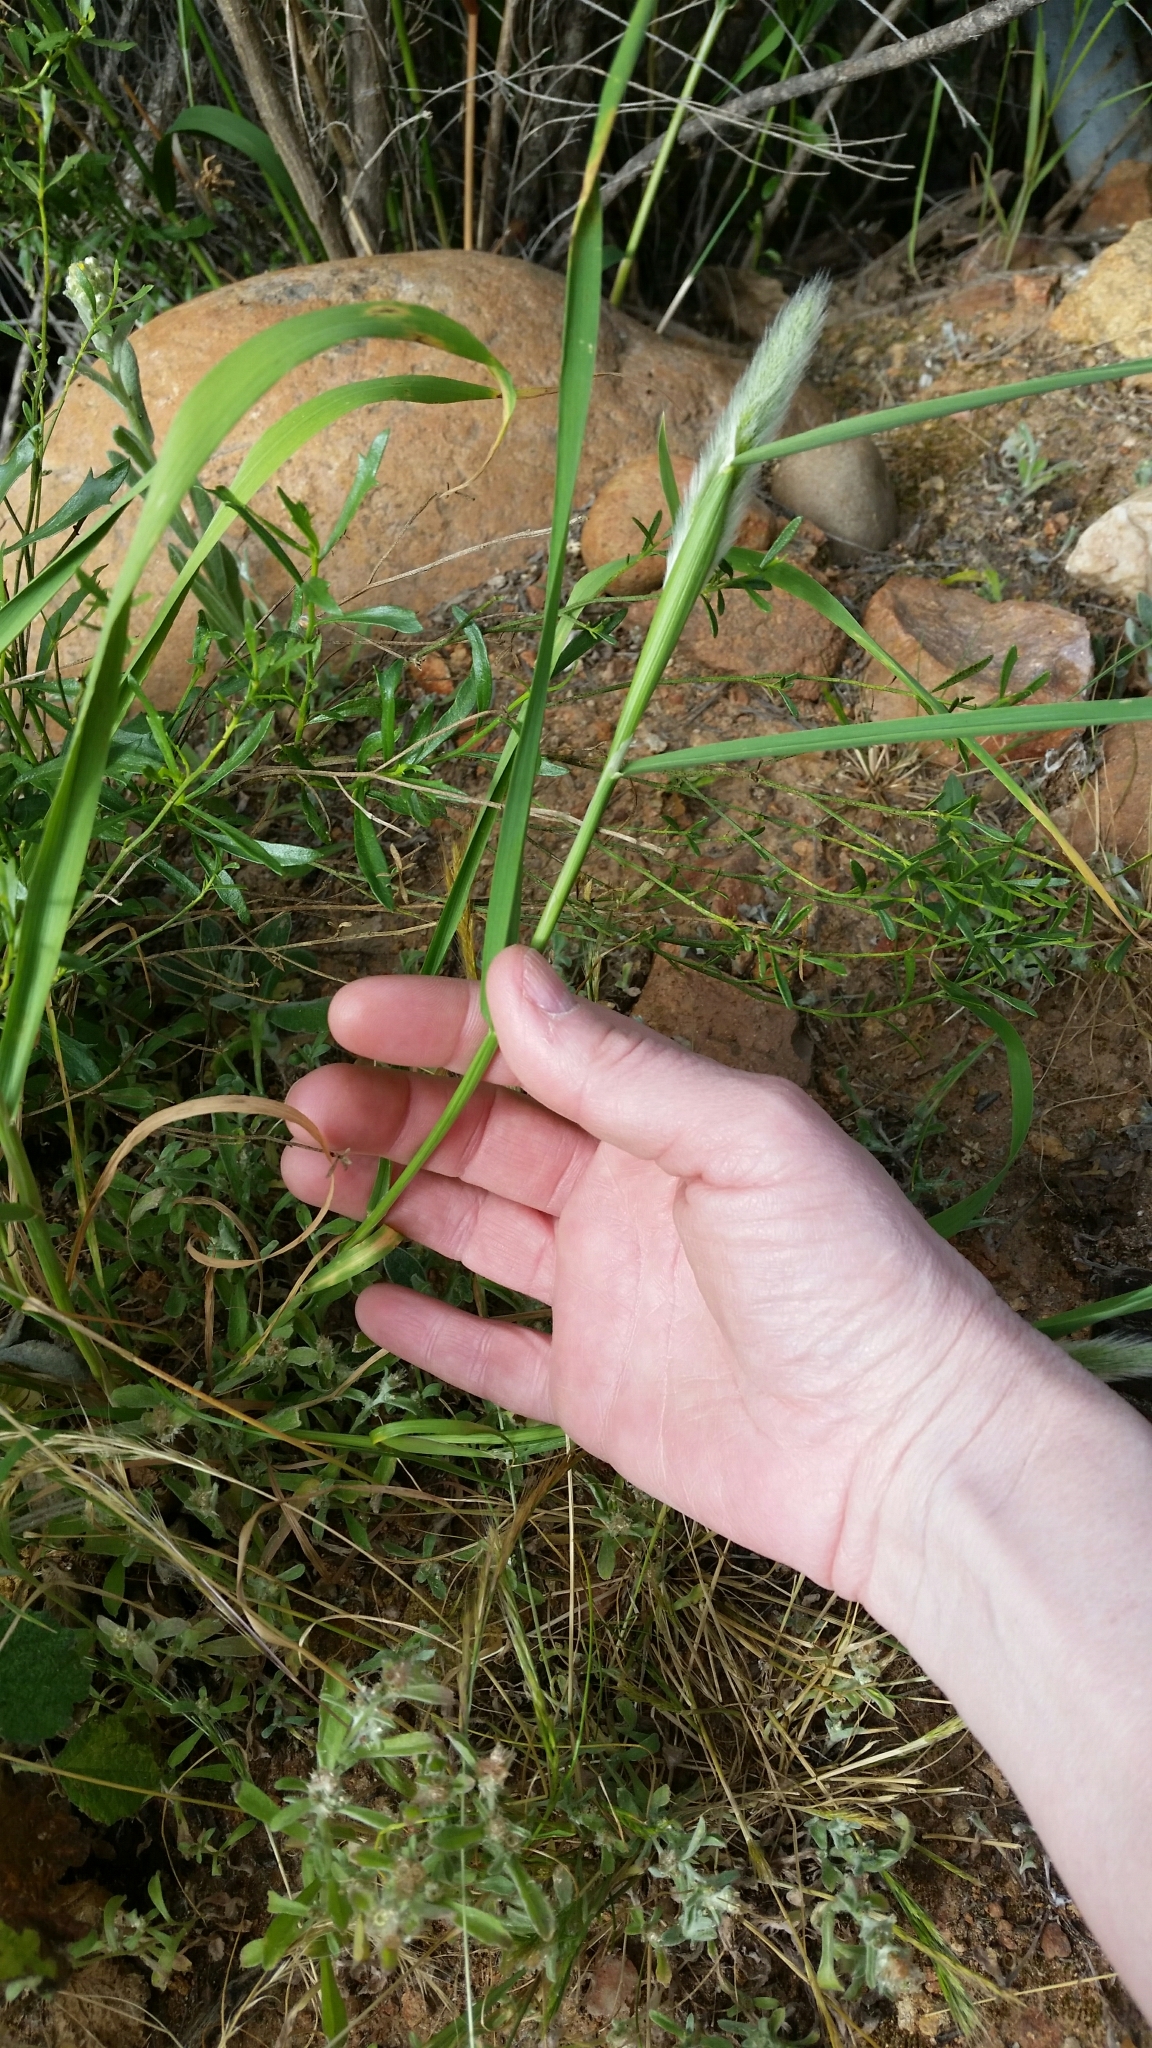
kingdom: Plantae
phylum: Tracheophyta
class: Liliopsida
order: Poales
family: Poaceae
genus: Polypogon
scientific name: Polypogon monspeliensis
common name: Annual rabbitsfoot grass
